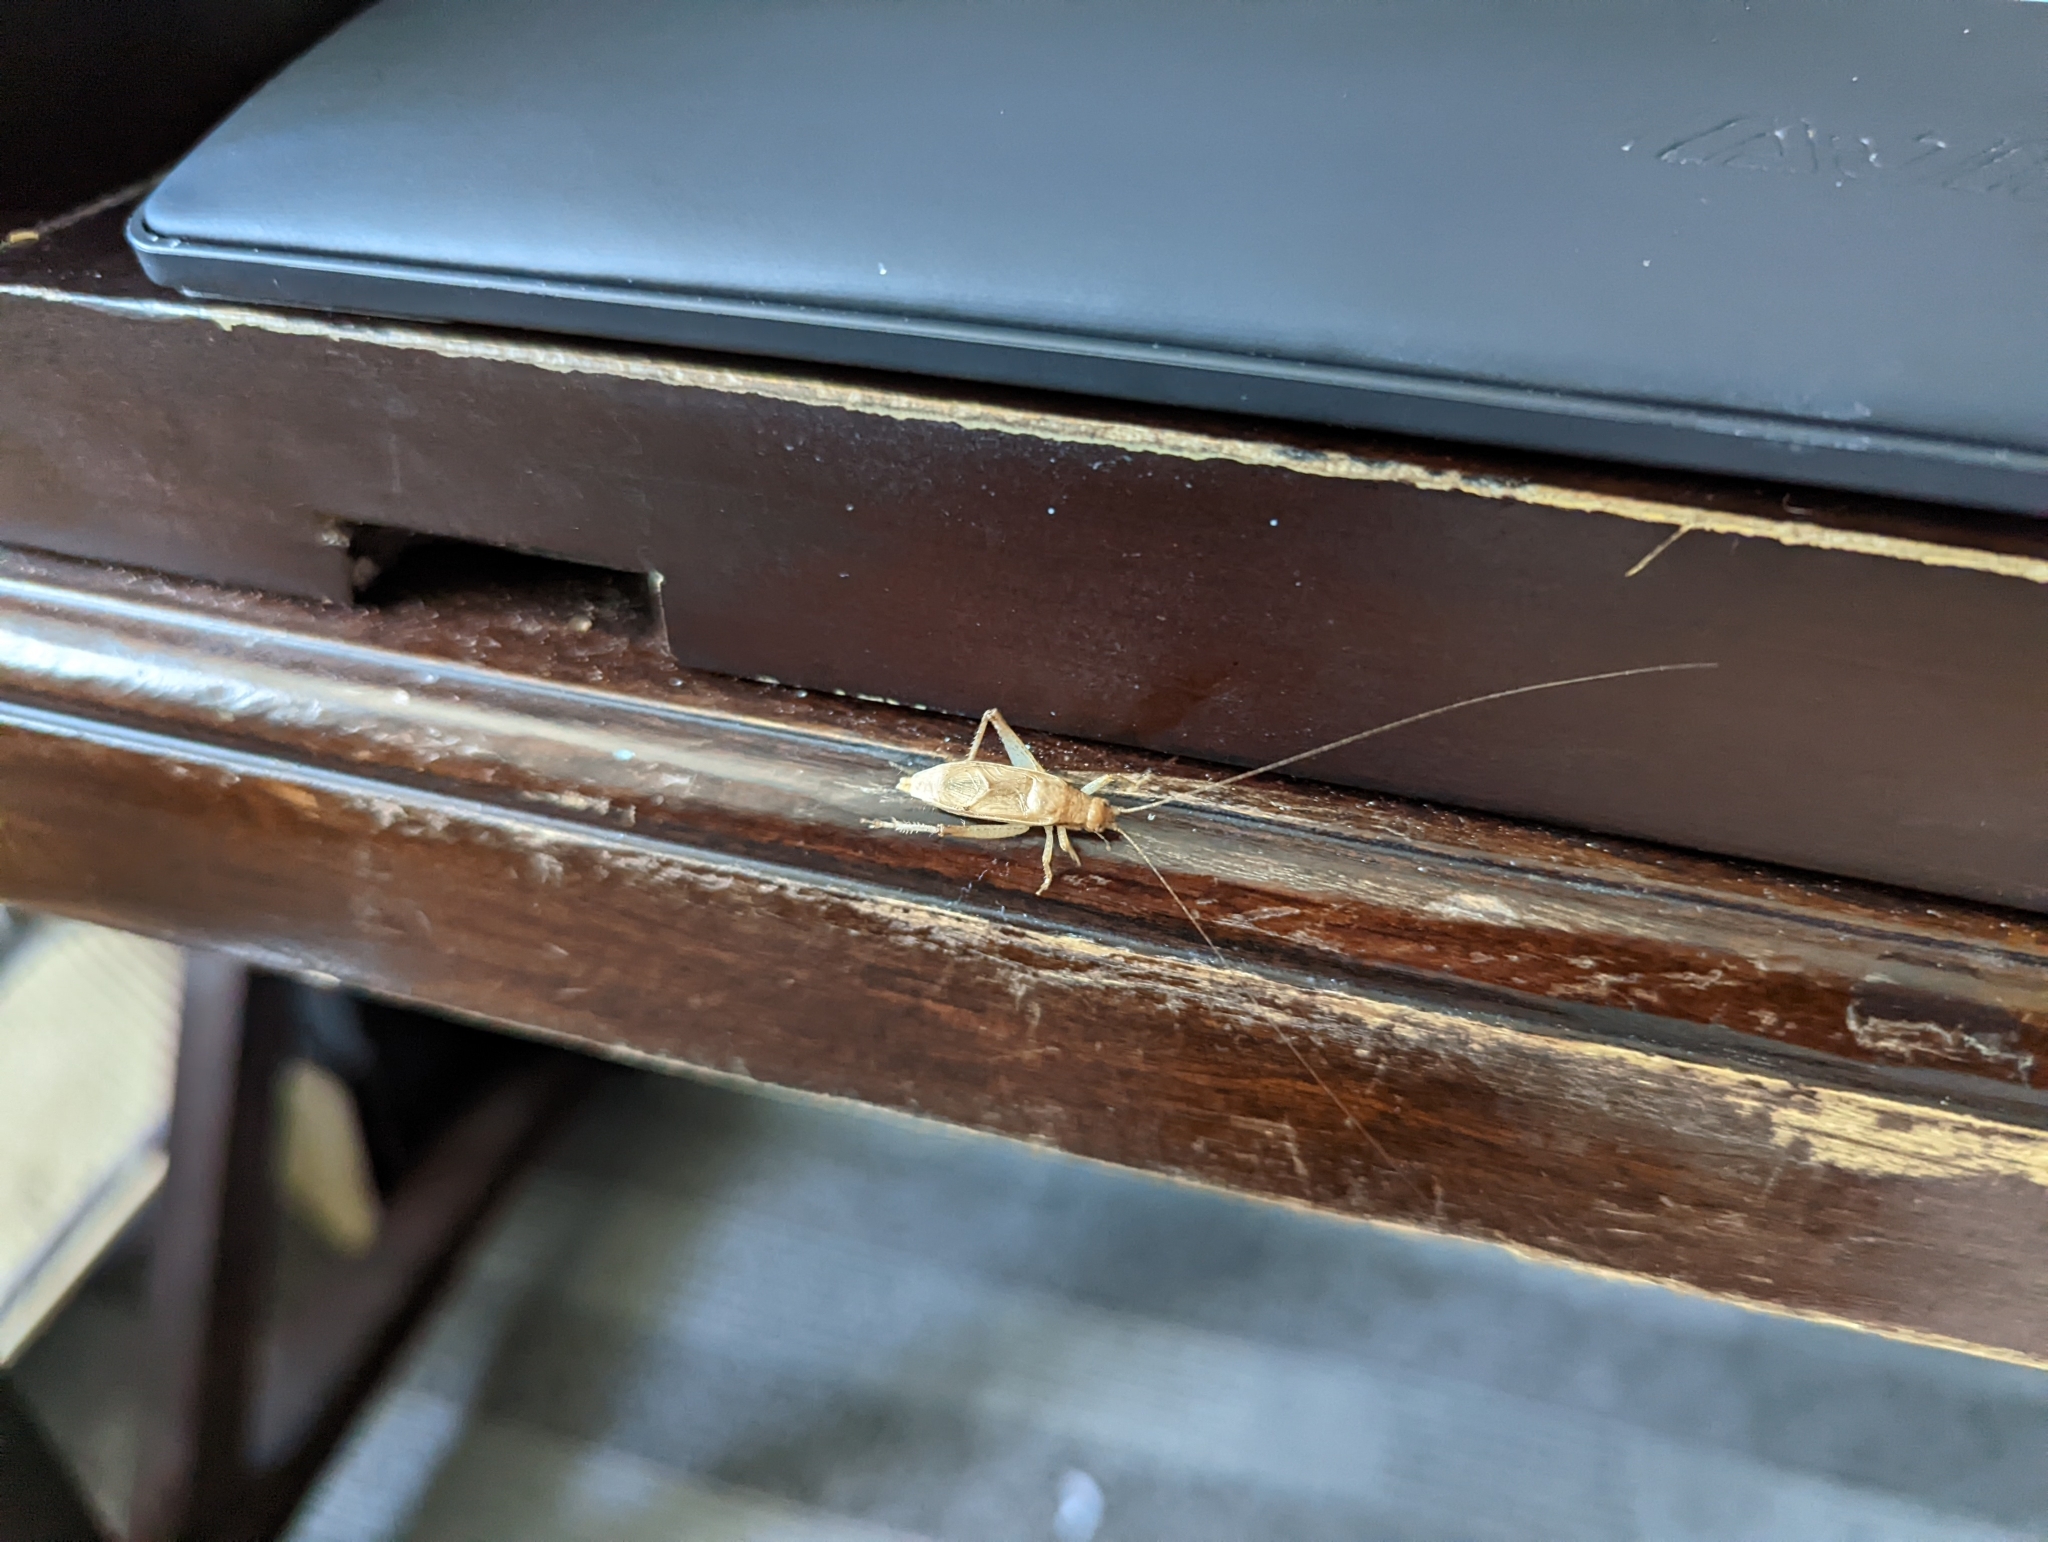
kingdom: Animalia
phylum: Arthropoda
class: Insecta
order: Orthoptera
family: Gryllidae
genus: Hapithus
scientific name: Hapithus saltator
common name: Jumping bush cricket
